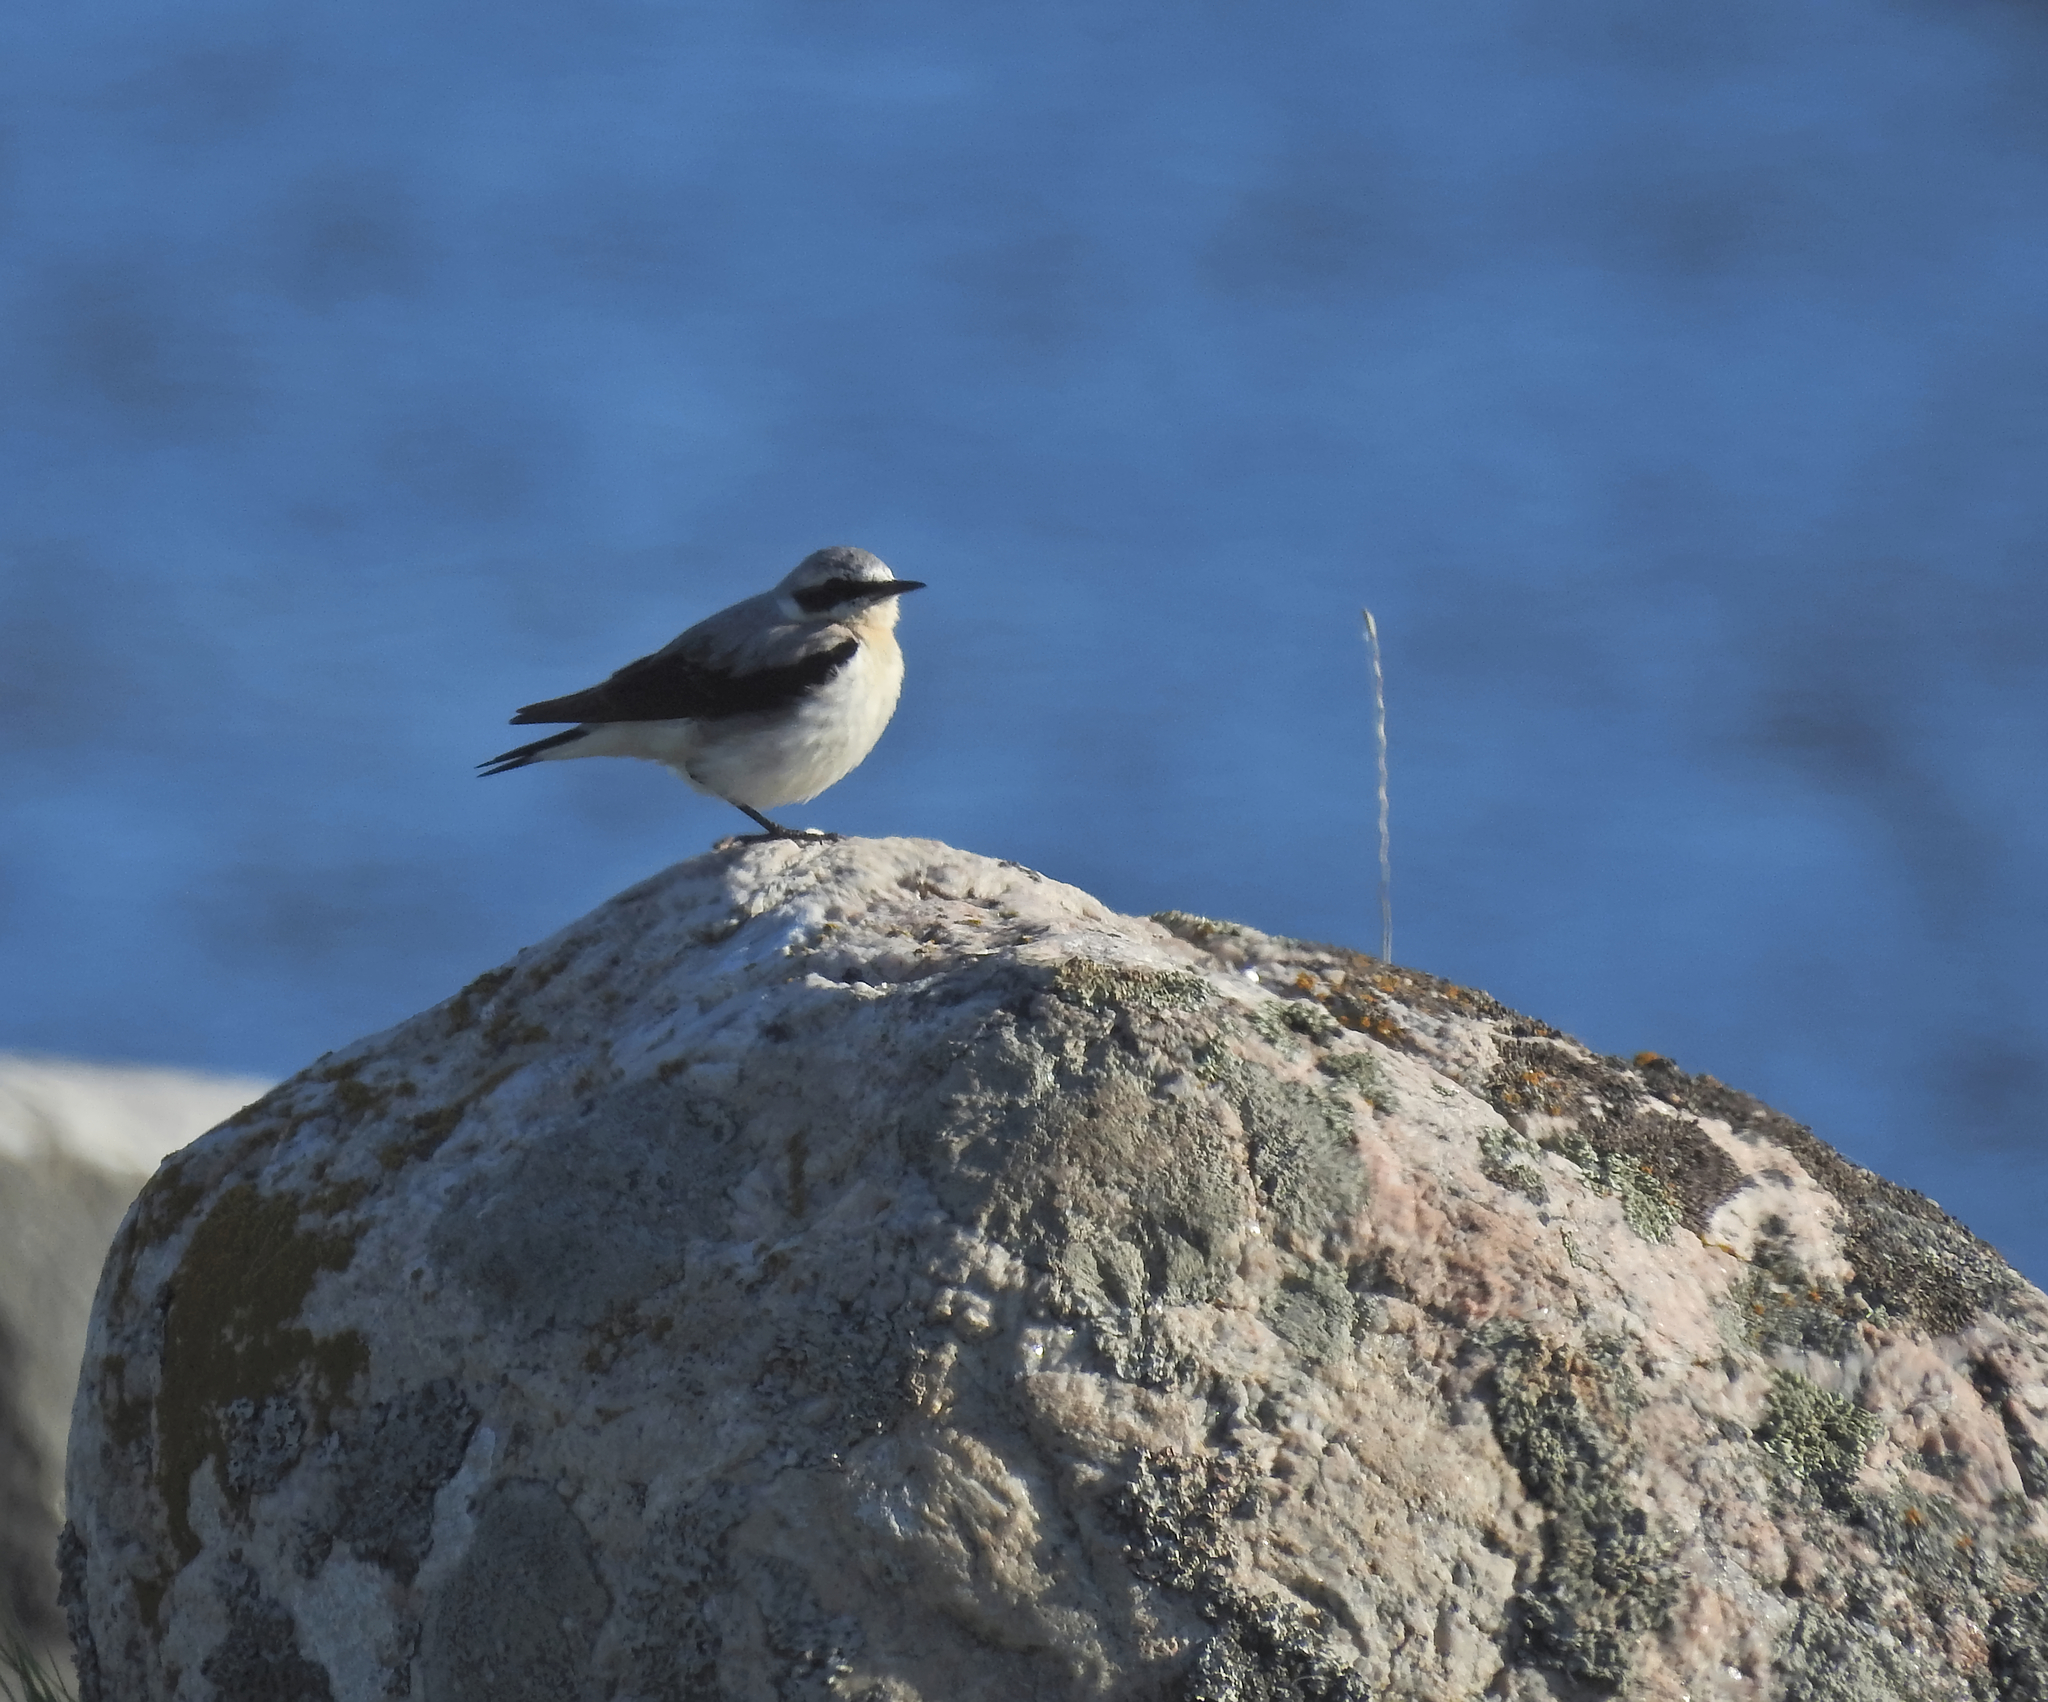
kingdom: Animalia
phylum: Chordata
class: Aves
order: Passeriformes
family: Muscicapidae
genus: Oenanthe
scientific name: Oenanthe oenanthe
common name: Northern wheatear
